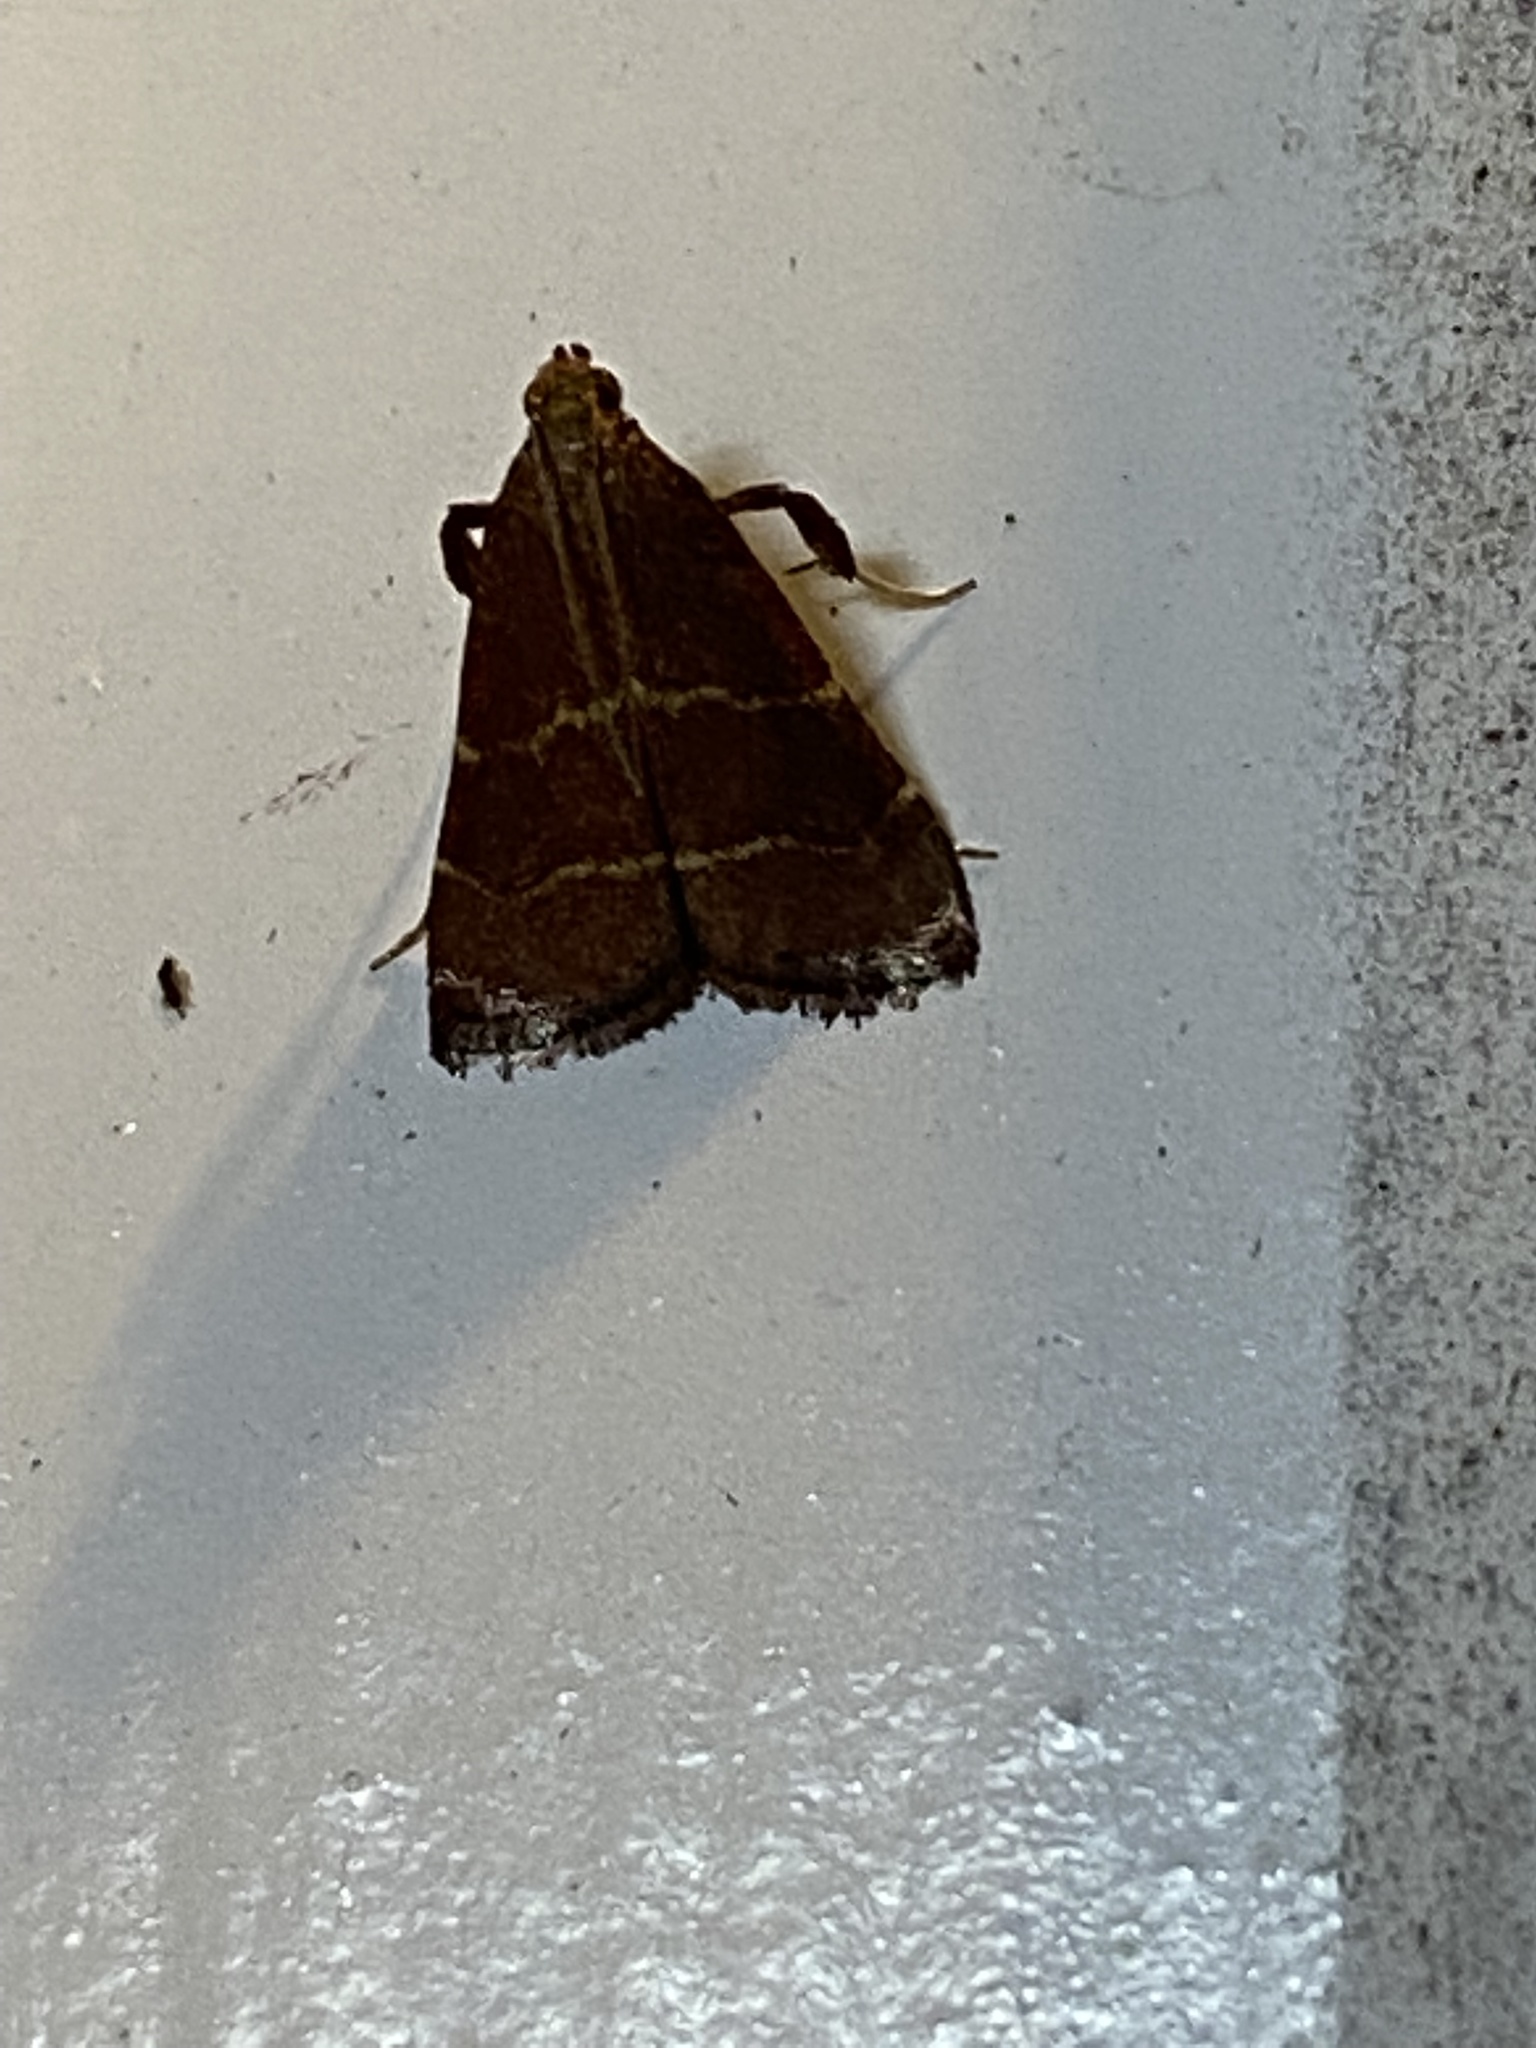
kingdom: Animalia
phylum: Arthropoda
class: Insecta
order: Lepidoptera
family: Pyralidae
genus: Arta
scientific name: Arta statalis
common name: Posturing arta moth
